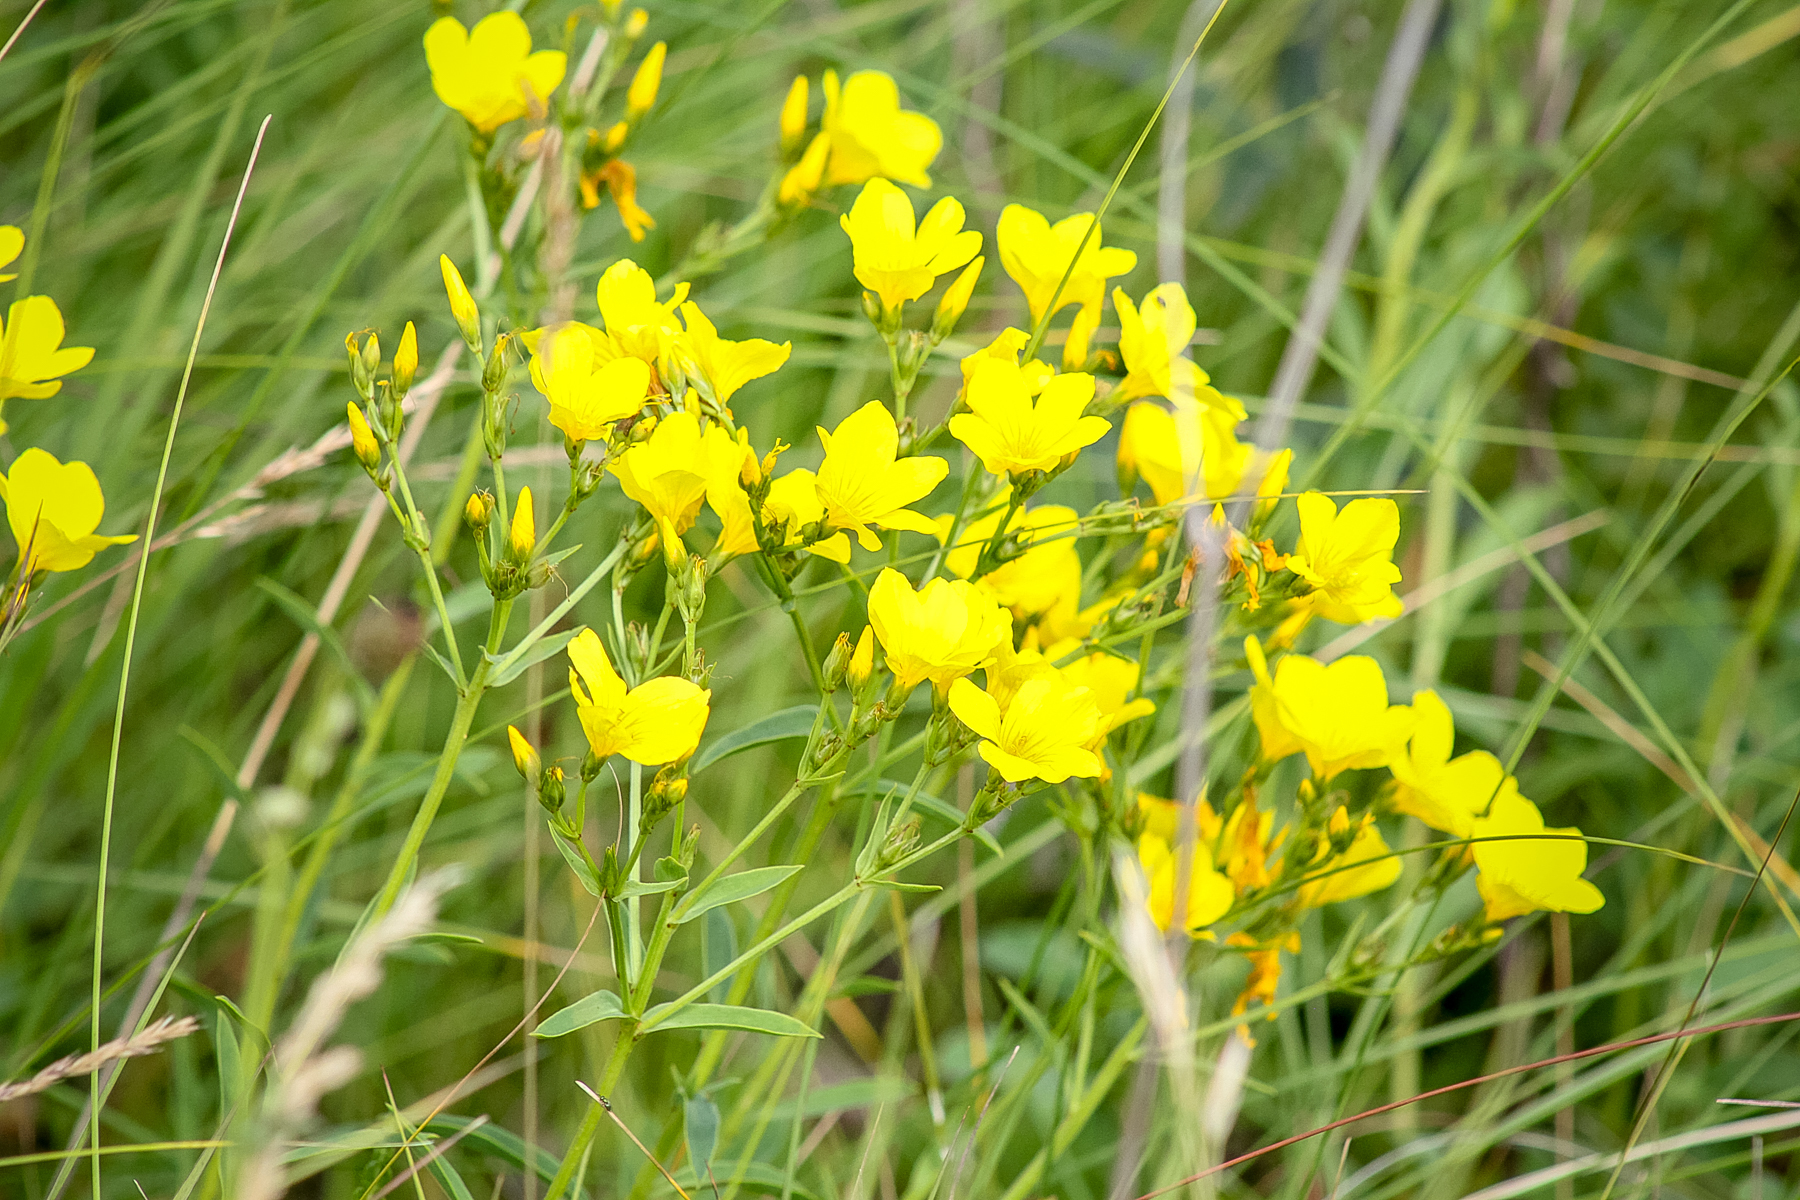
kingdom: Plantae
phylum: Tracheophyta
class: Magnoliopsida
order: Malpighiales
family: Linaceae
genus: Linum
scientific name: Linum flavum
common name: Yellow flax
